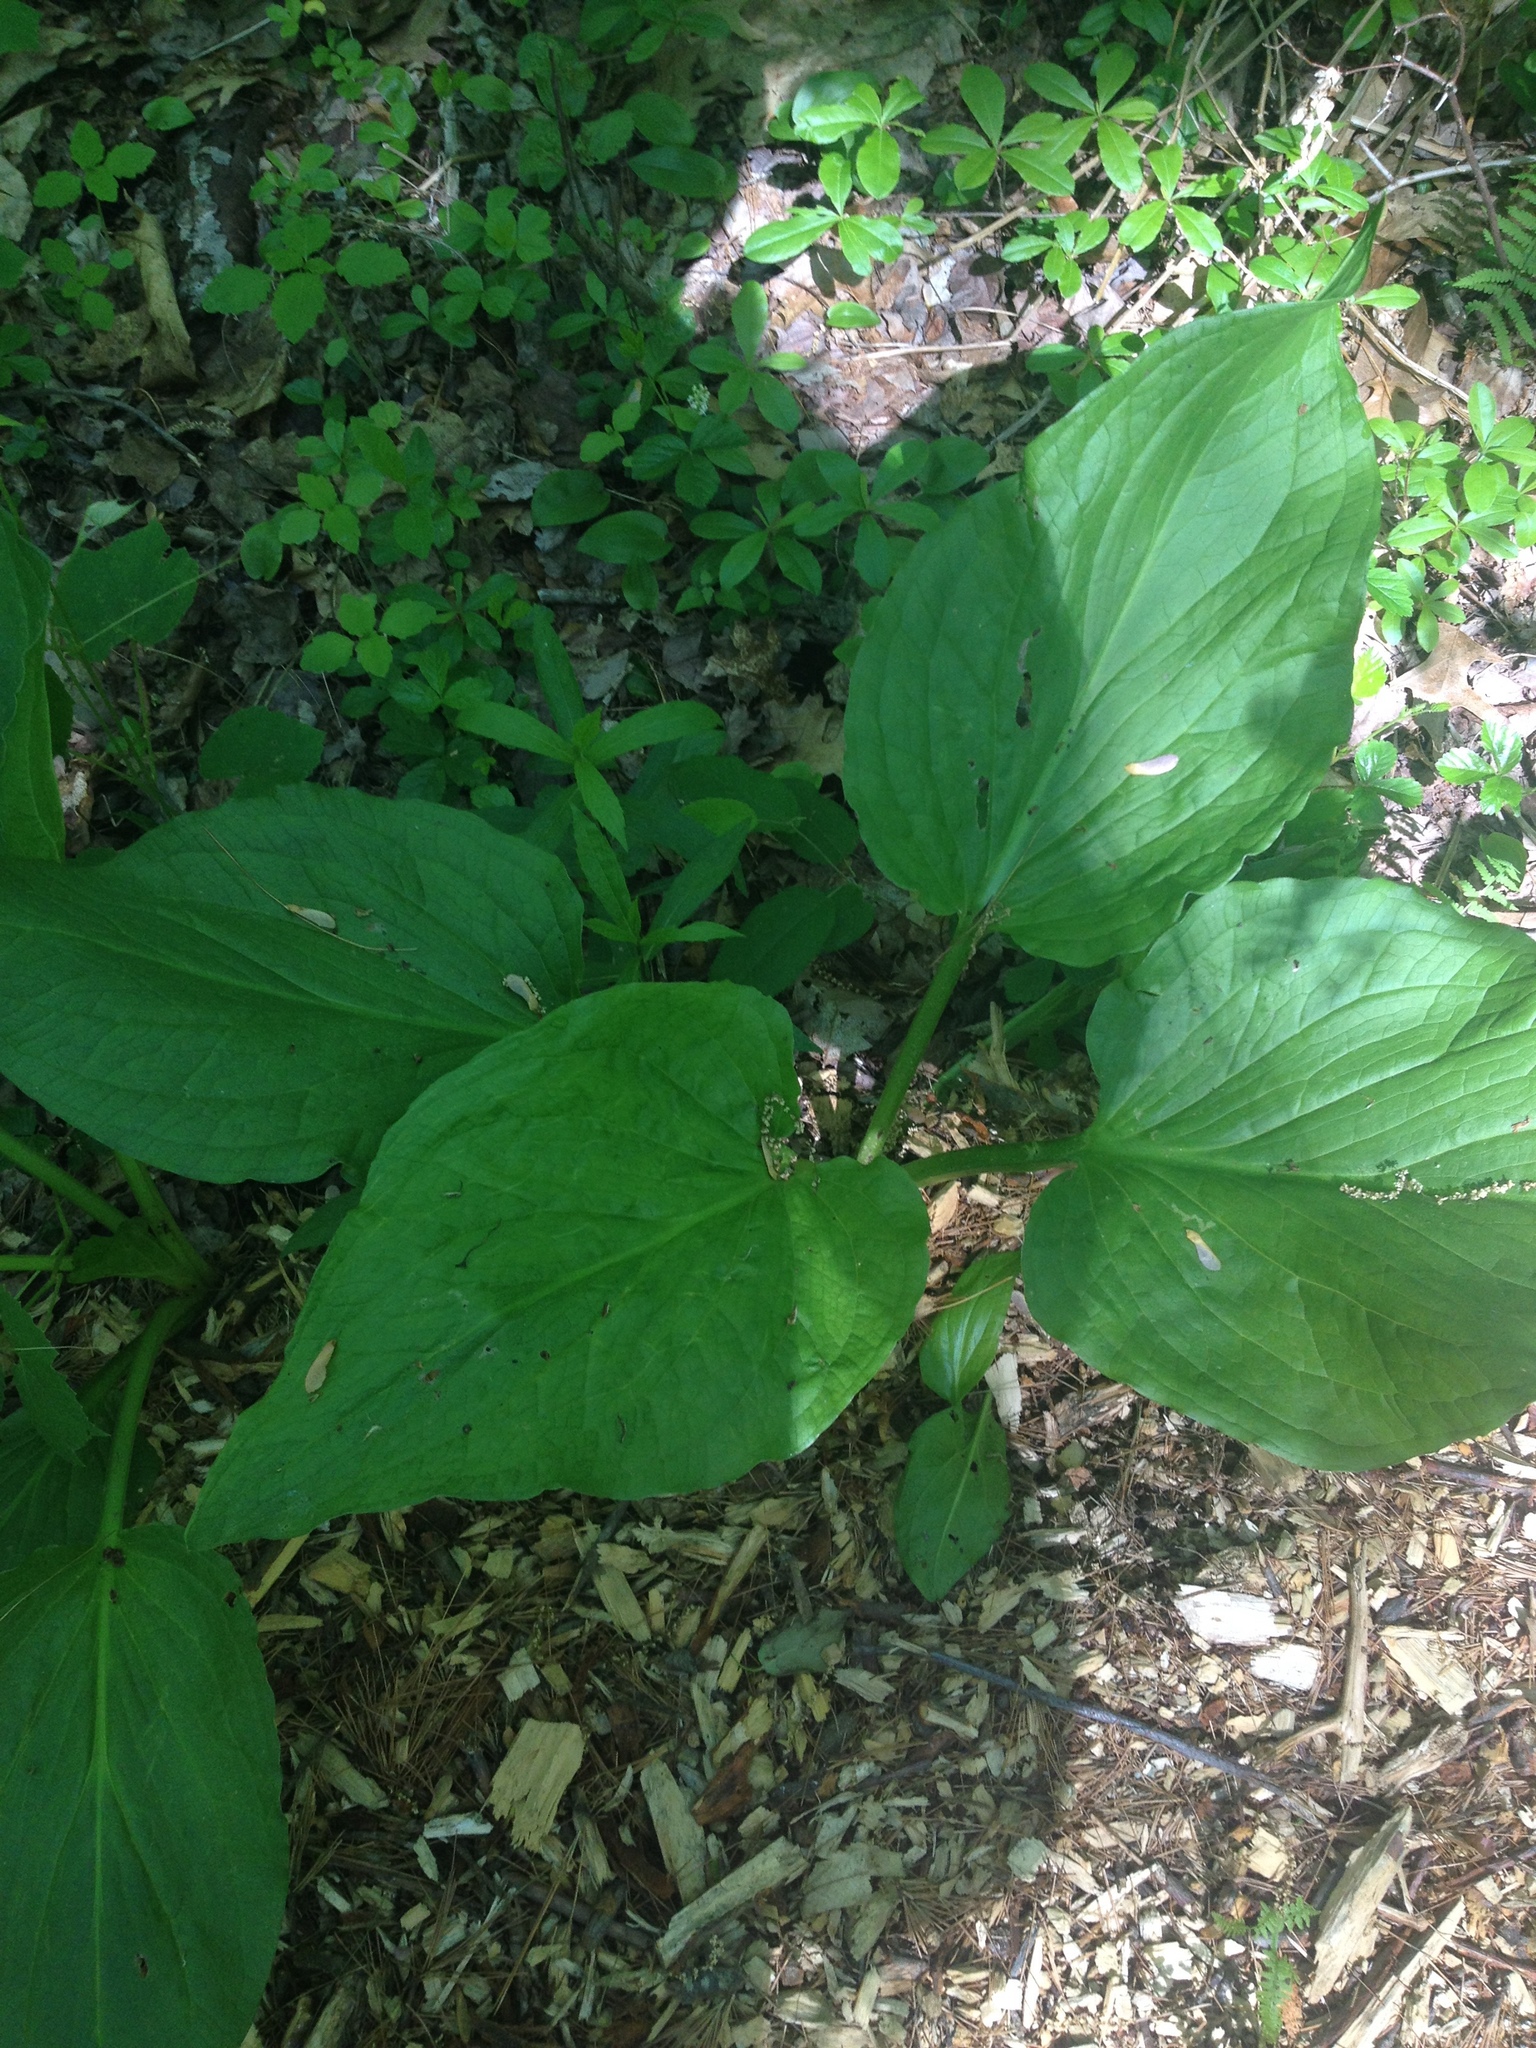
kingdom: Plantae
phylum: Tracheophyta
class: Liliopsida
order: Alismatales
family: Araceae
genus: Symplocarpus
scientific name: Symplocarpus foetidus
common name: Eastern skunk cabbage
